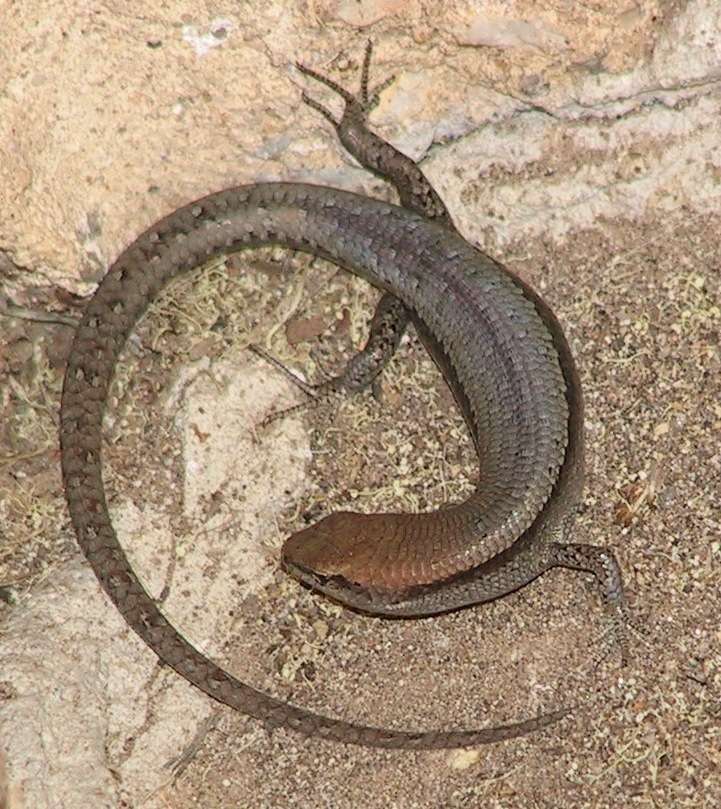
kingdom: Animalia
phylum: Chordata
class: Squamata
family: Scincidae
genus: Lampropholis
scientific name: Lampropholis guichenoti
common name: Garden skink
